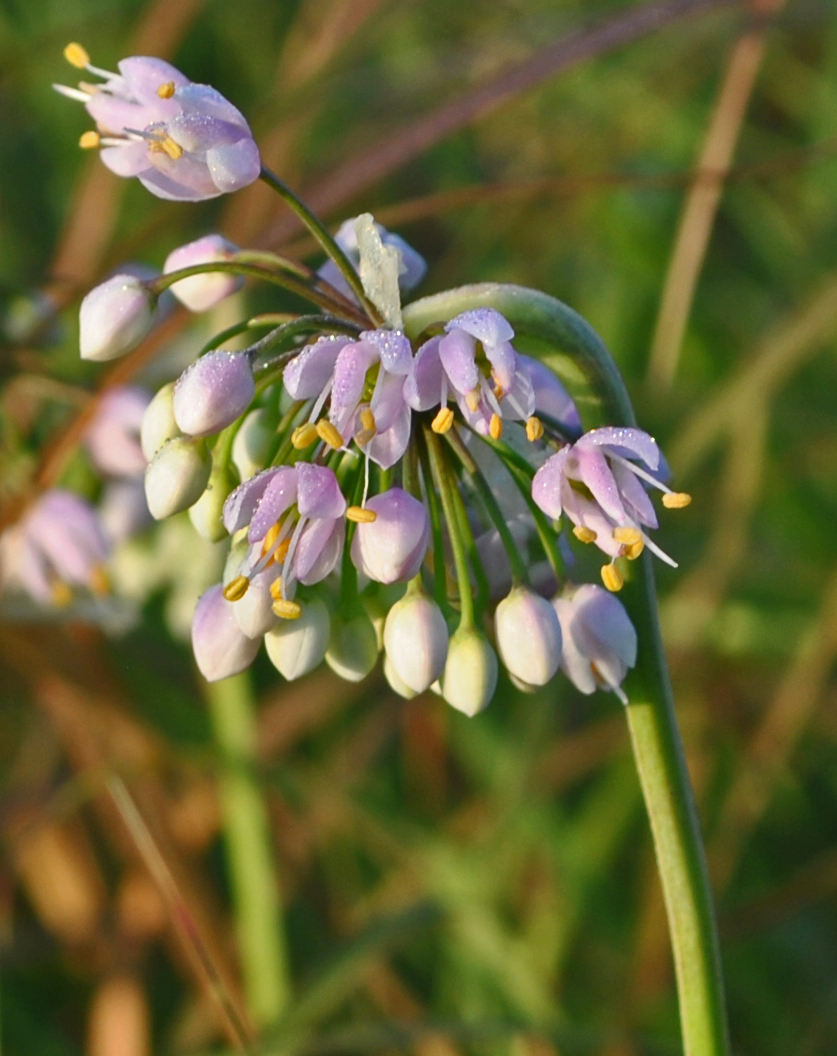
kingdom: Plantae
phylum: Tracheophyta
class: Liliopsida
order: Asparagales
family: Amaryllidaceae
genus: Allium
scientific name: Allium cernuum
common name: Nodding onion
